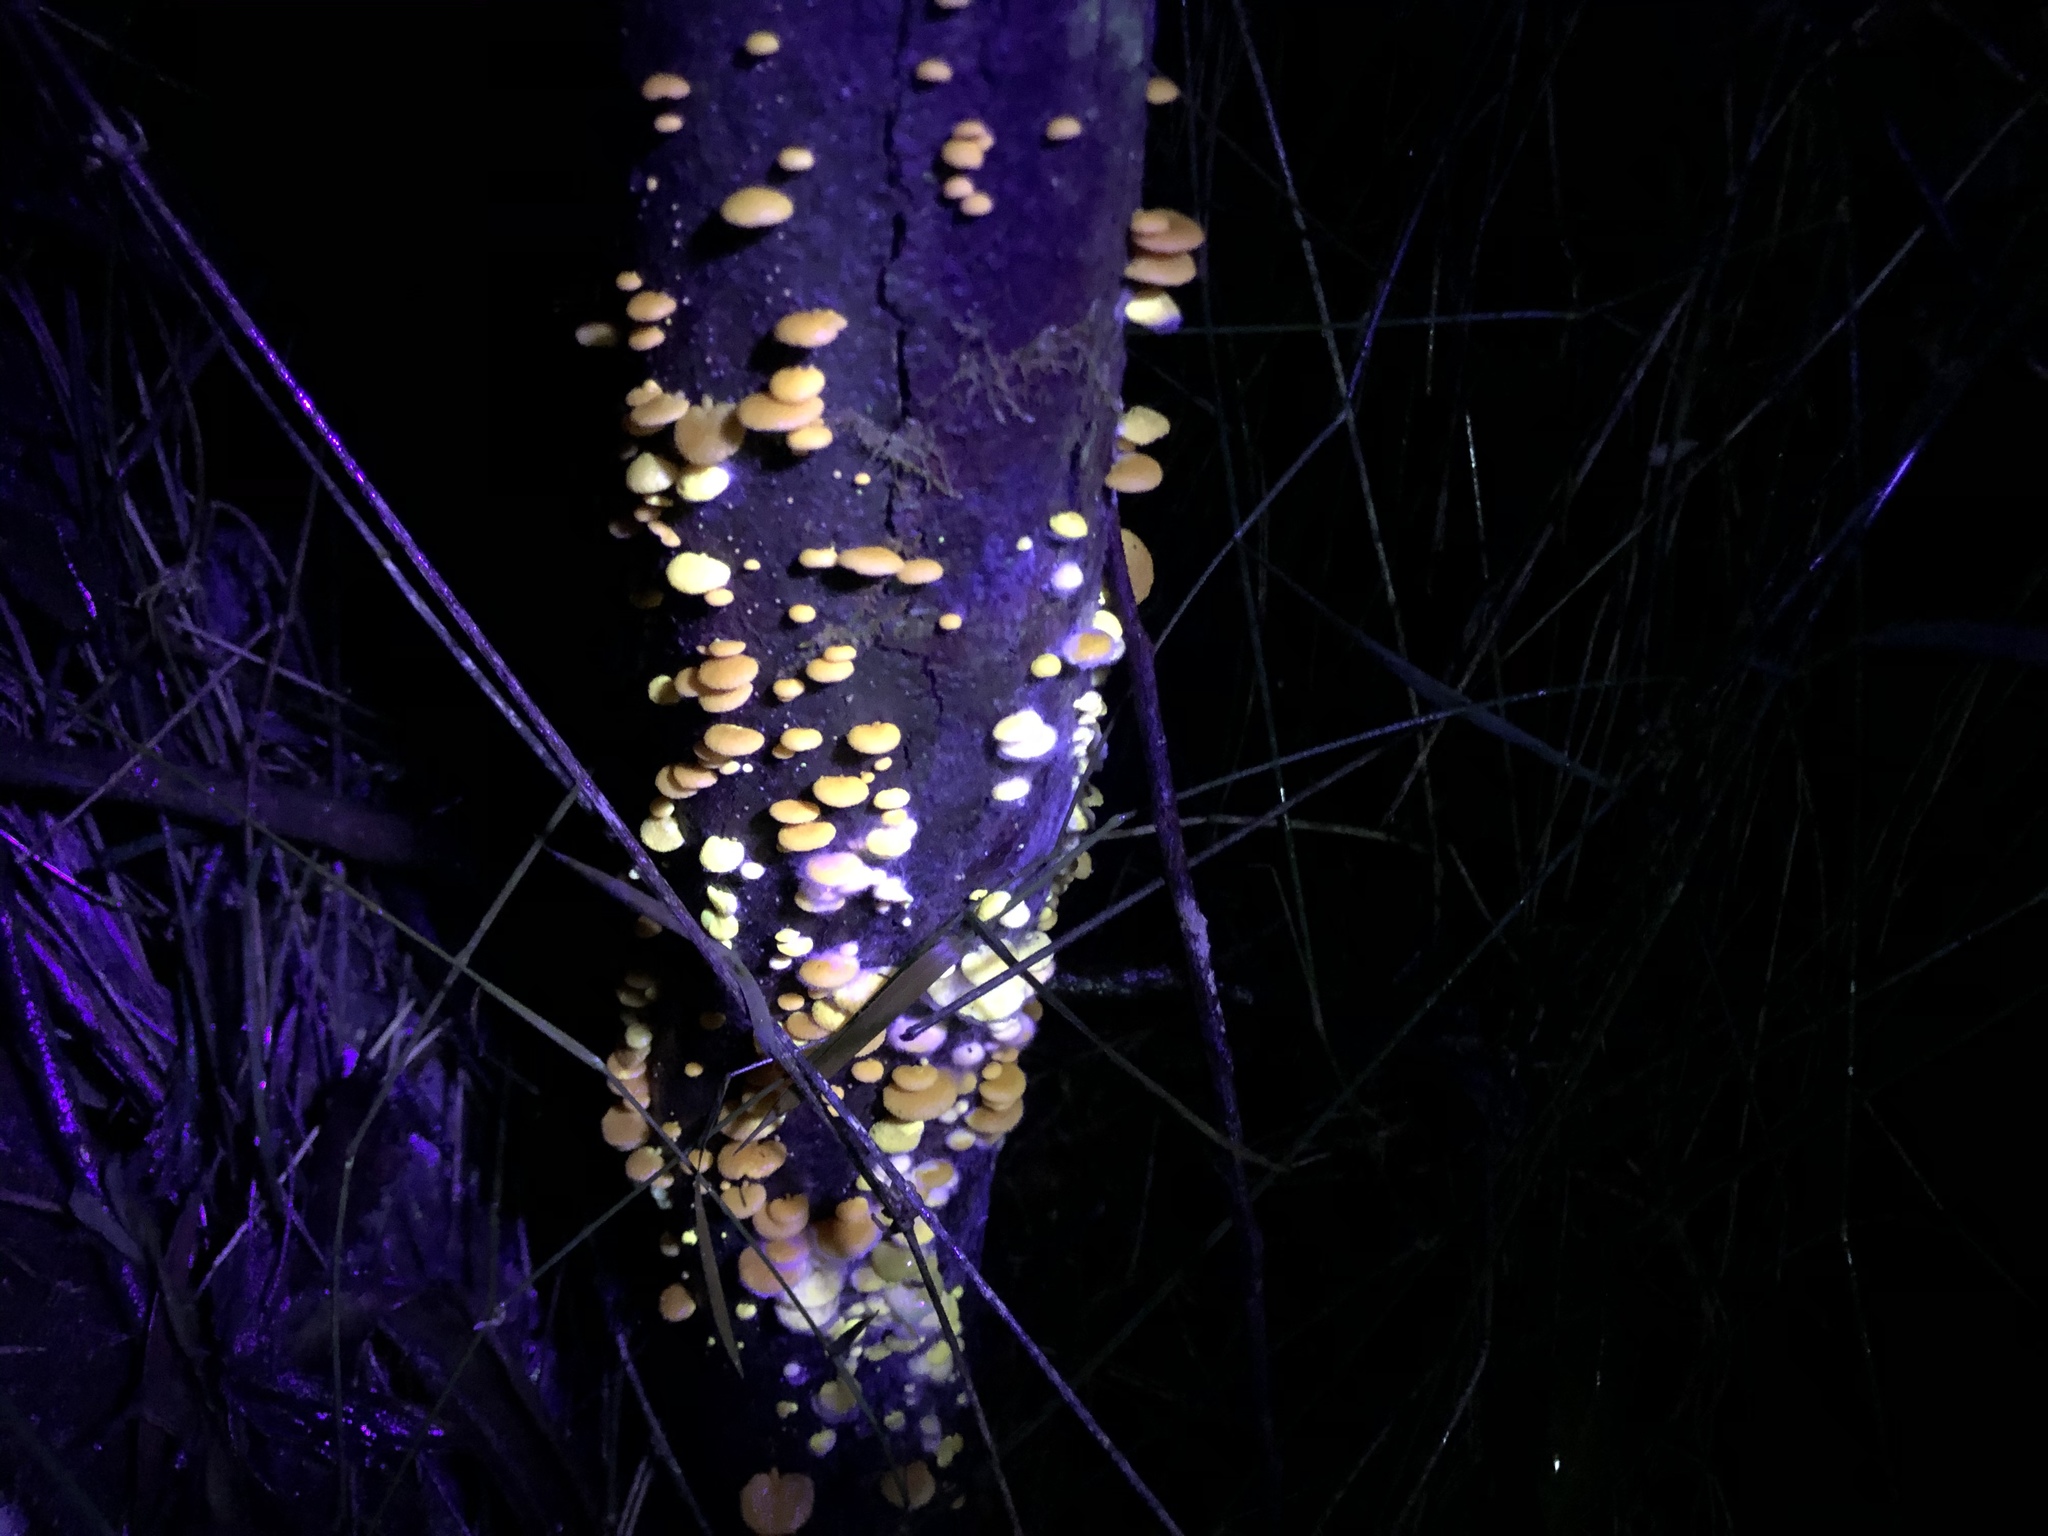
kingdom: Fungi
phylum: Basidiomycota
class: Agaricomycetes
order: Agaricales
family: Mycenaceae
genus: Favolaschia
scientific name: Favolaschia claudopus
